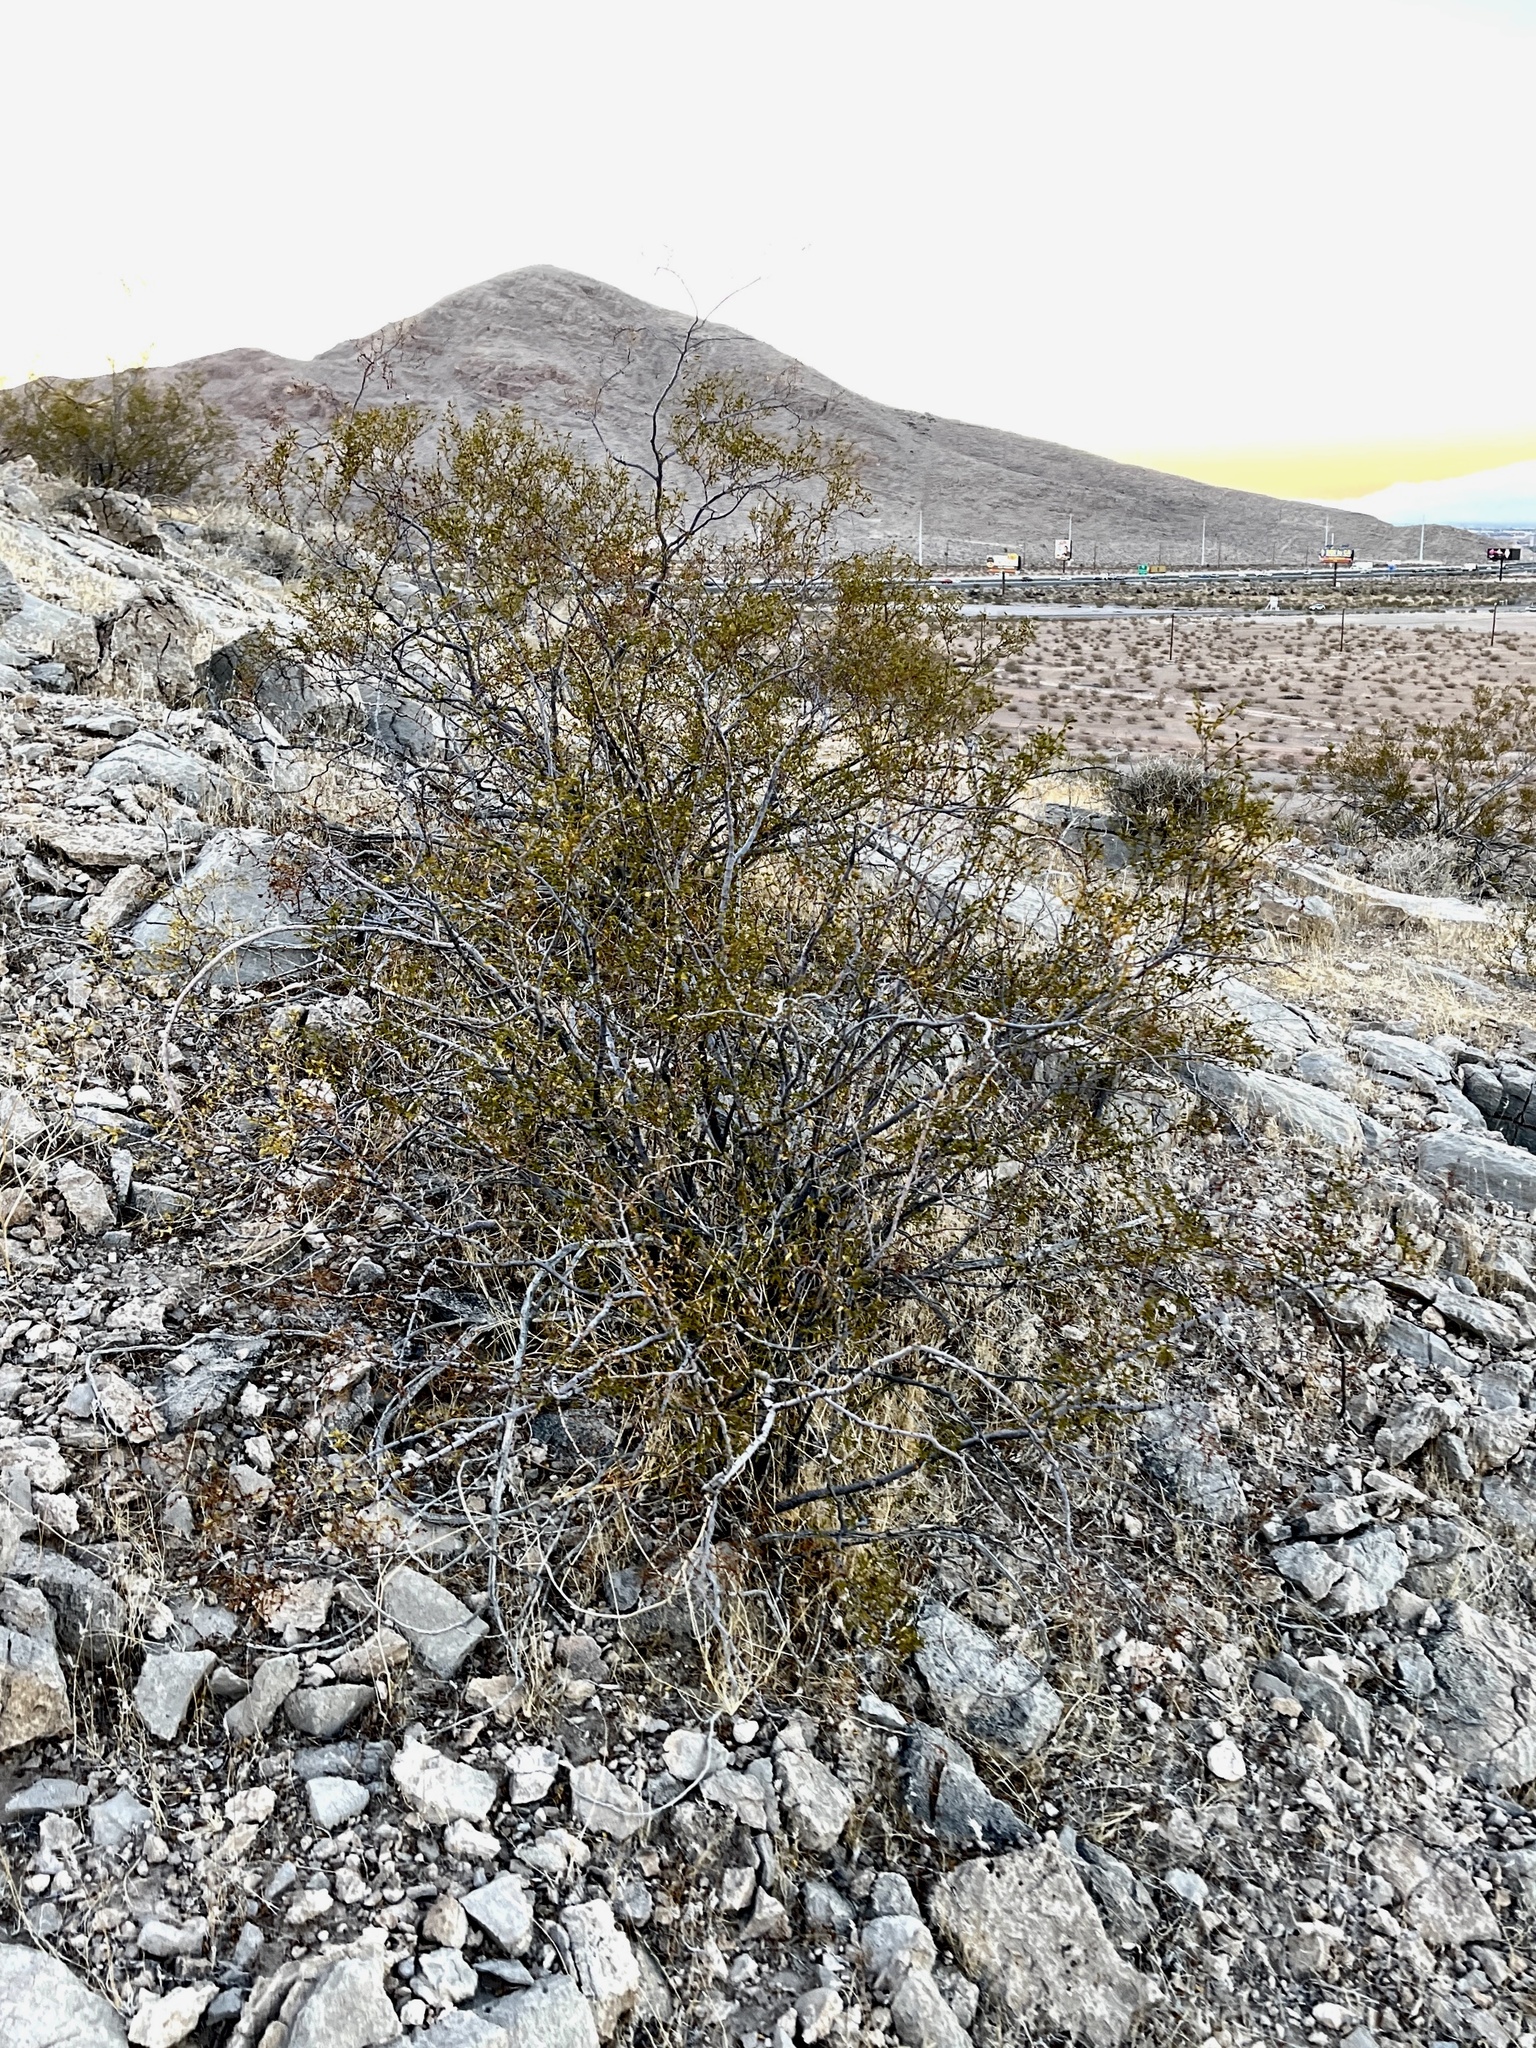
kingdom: Plantae
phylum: Tracheophyta
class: Magnoliopsida
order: Zygophyllales
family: Zygophyllaceae
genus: Larrea
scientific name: Larrea tridentata
